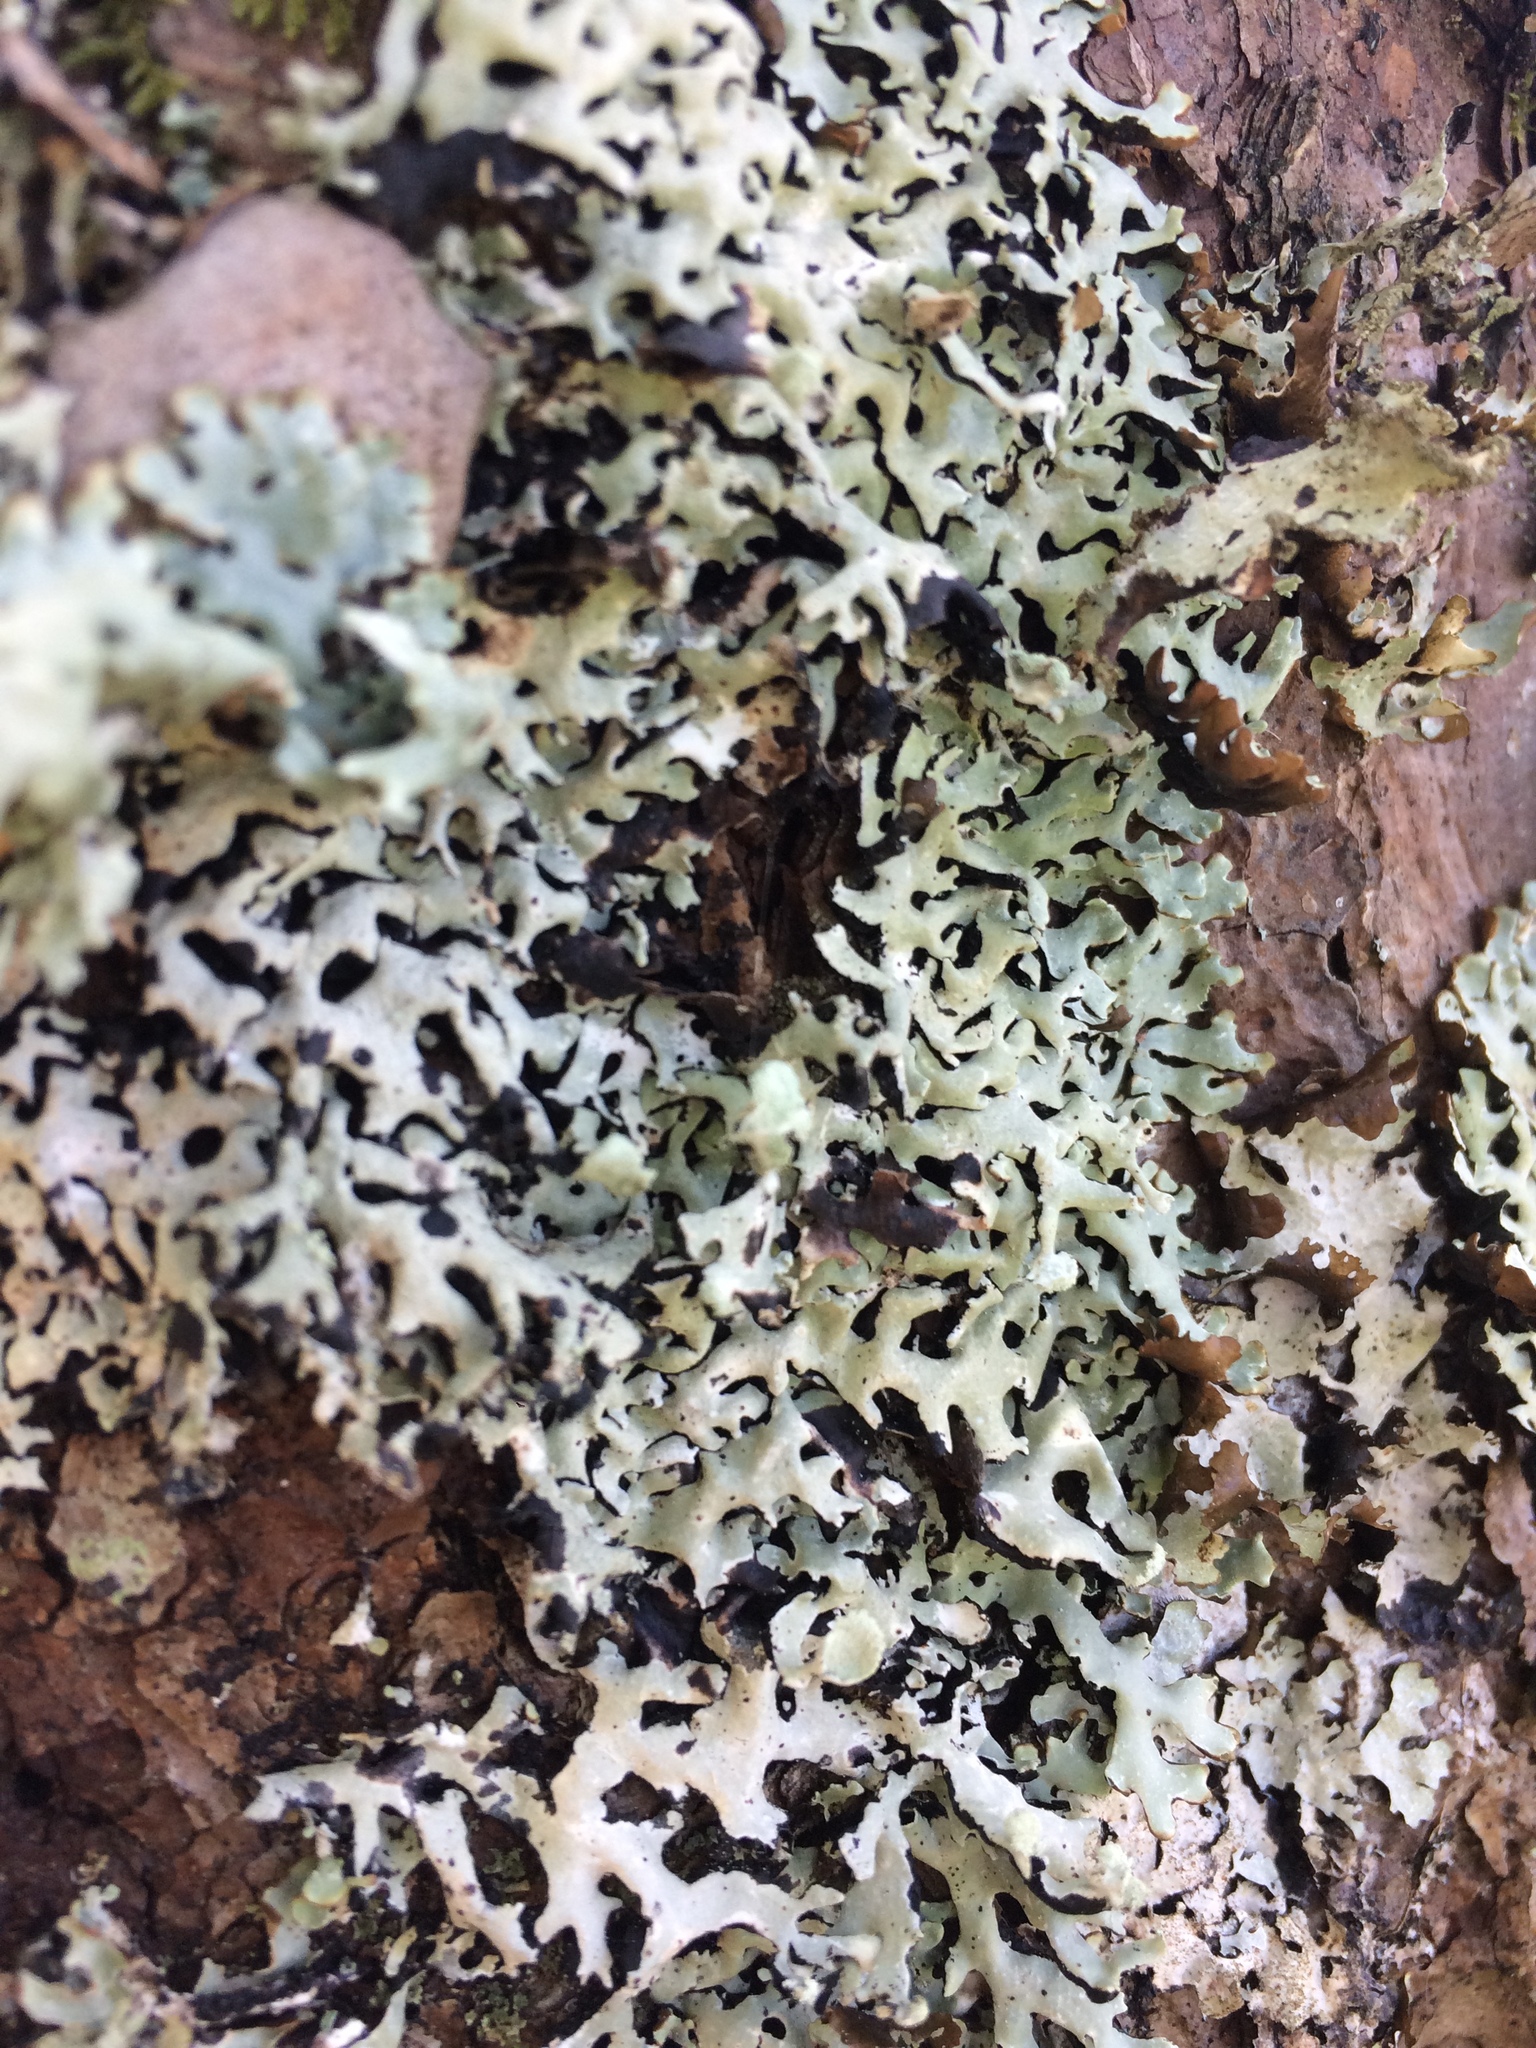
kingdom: Fungi
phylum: Ascomycota
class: Lecanoromycetes
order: Lecanorales
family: Parmeliaceae
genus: Hypogymnia
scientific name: Hypogymnia physodes
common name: Dark crottle
